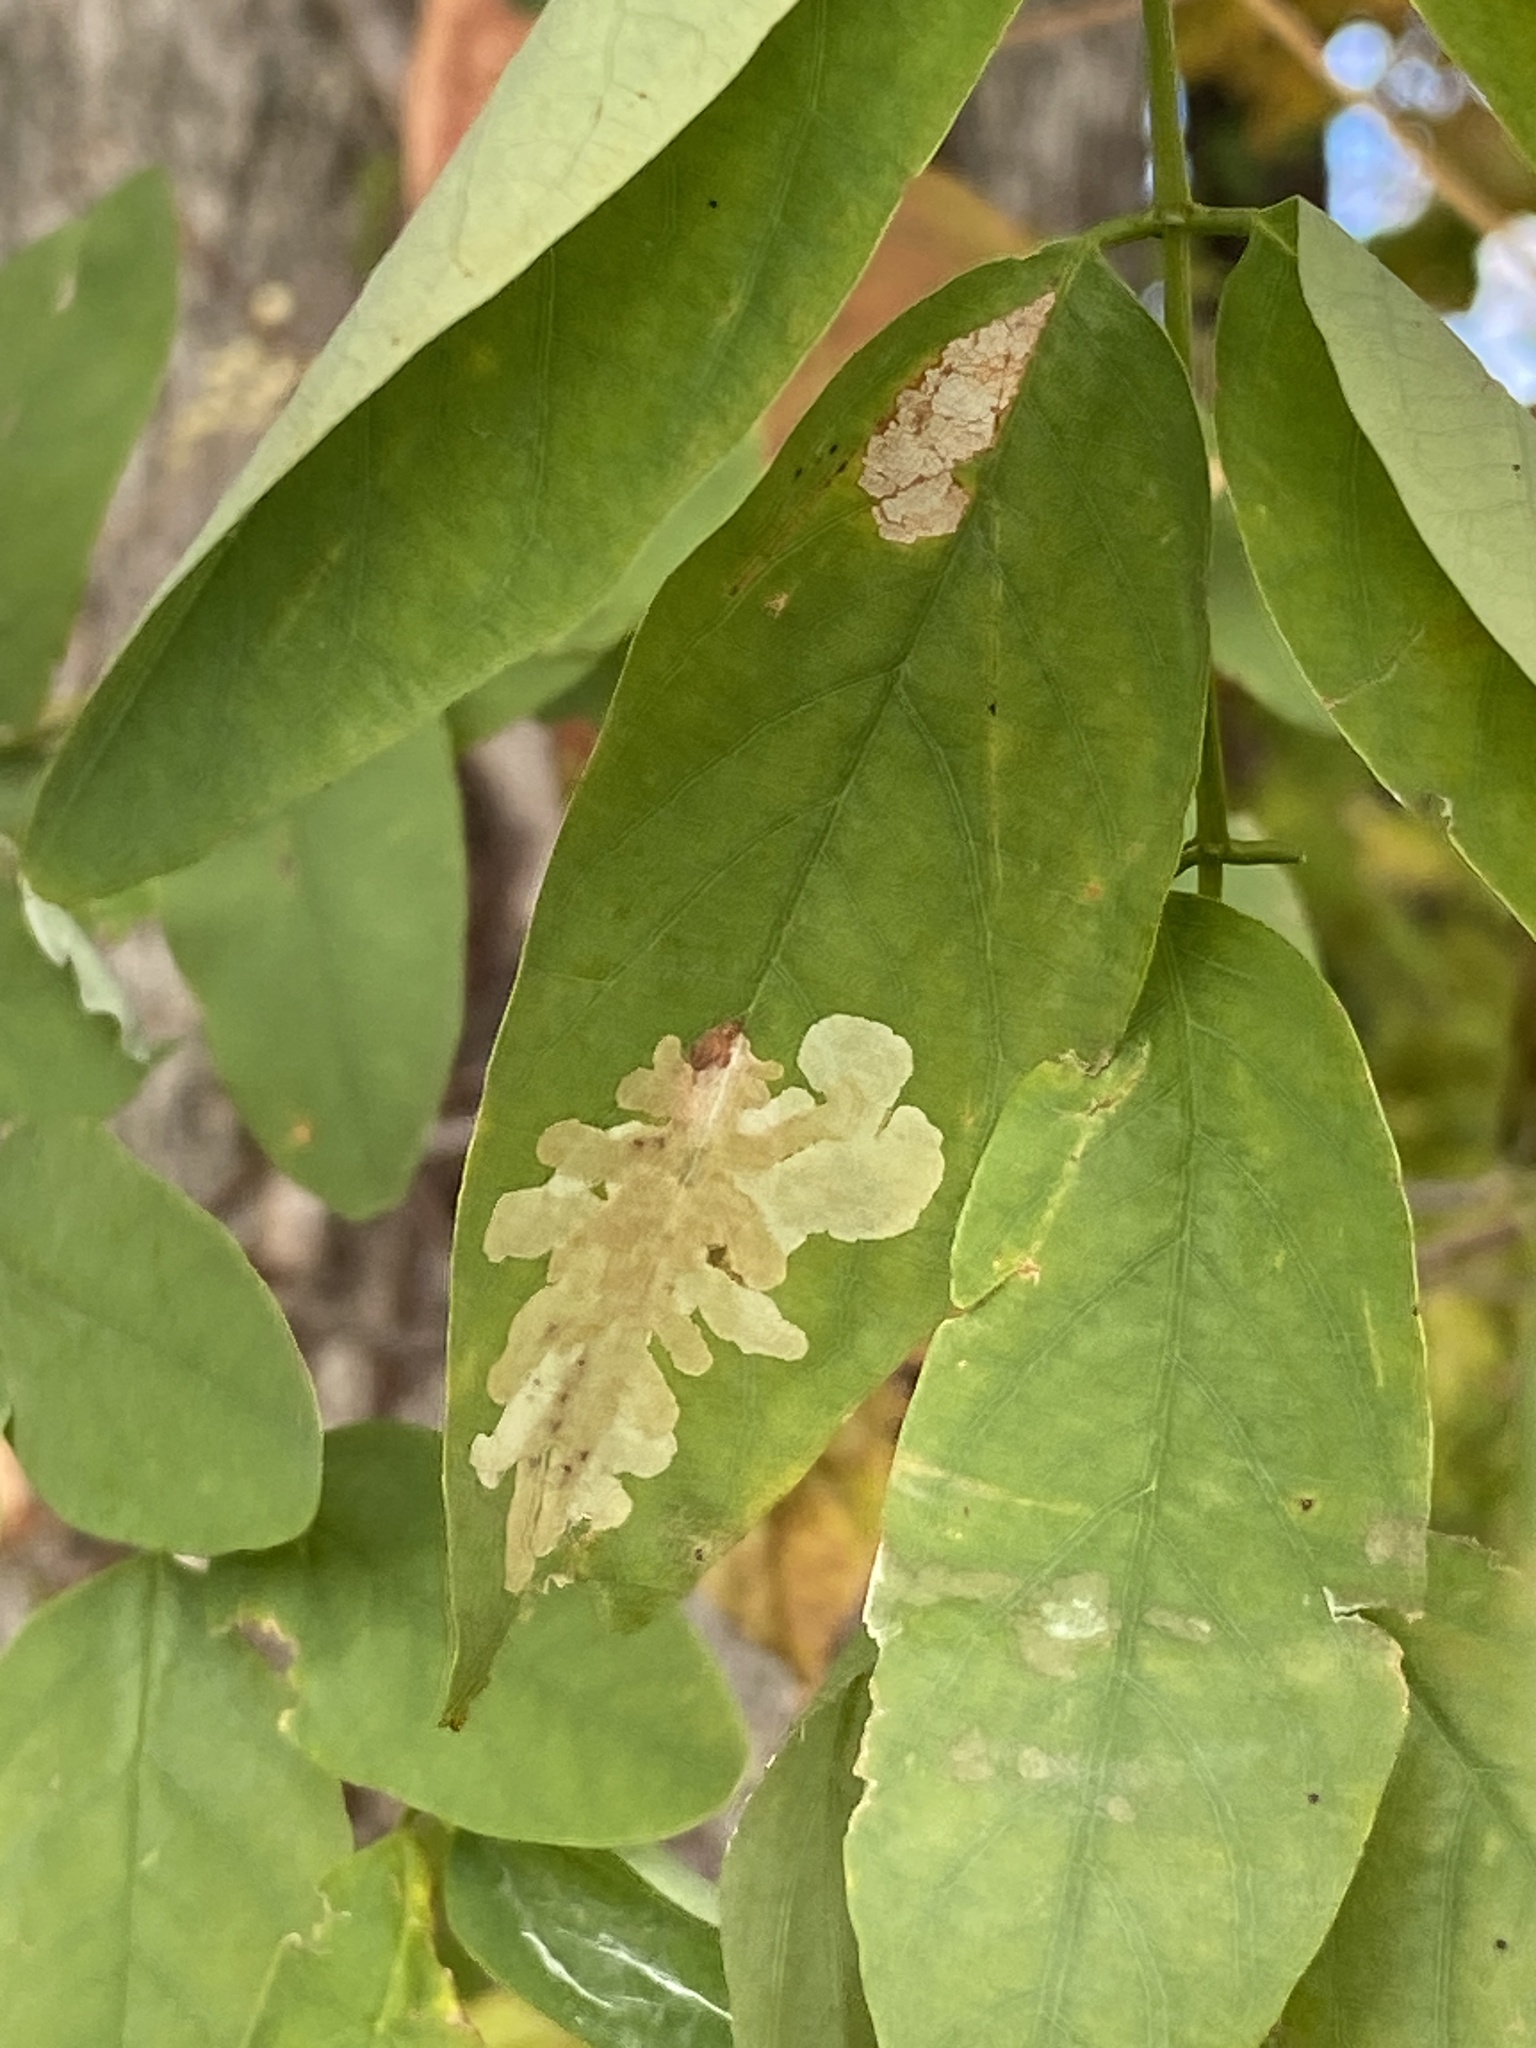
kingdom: Animalia
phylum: Arthropoda
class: Insecta
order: Lepidoptera
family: Gracillariidae
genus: Parectopa
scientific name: Parectopa robiniella
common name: Locust digitate leafminer
